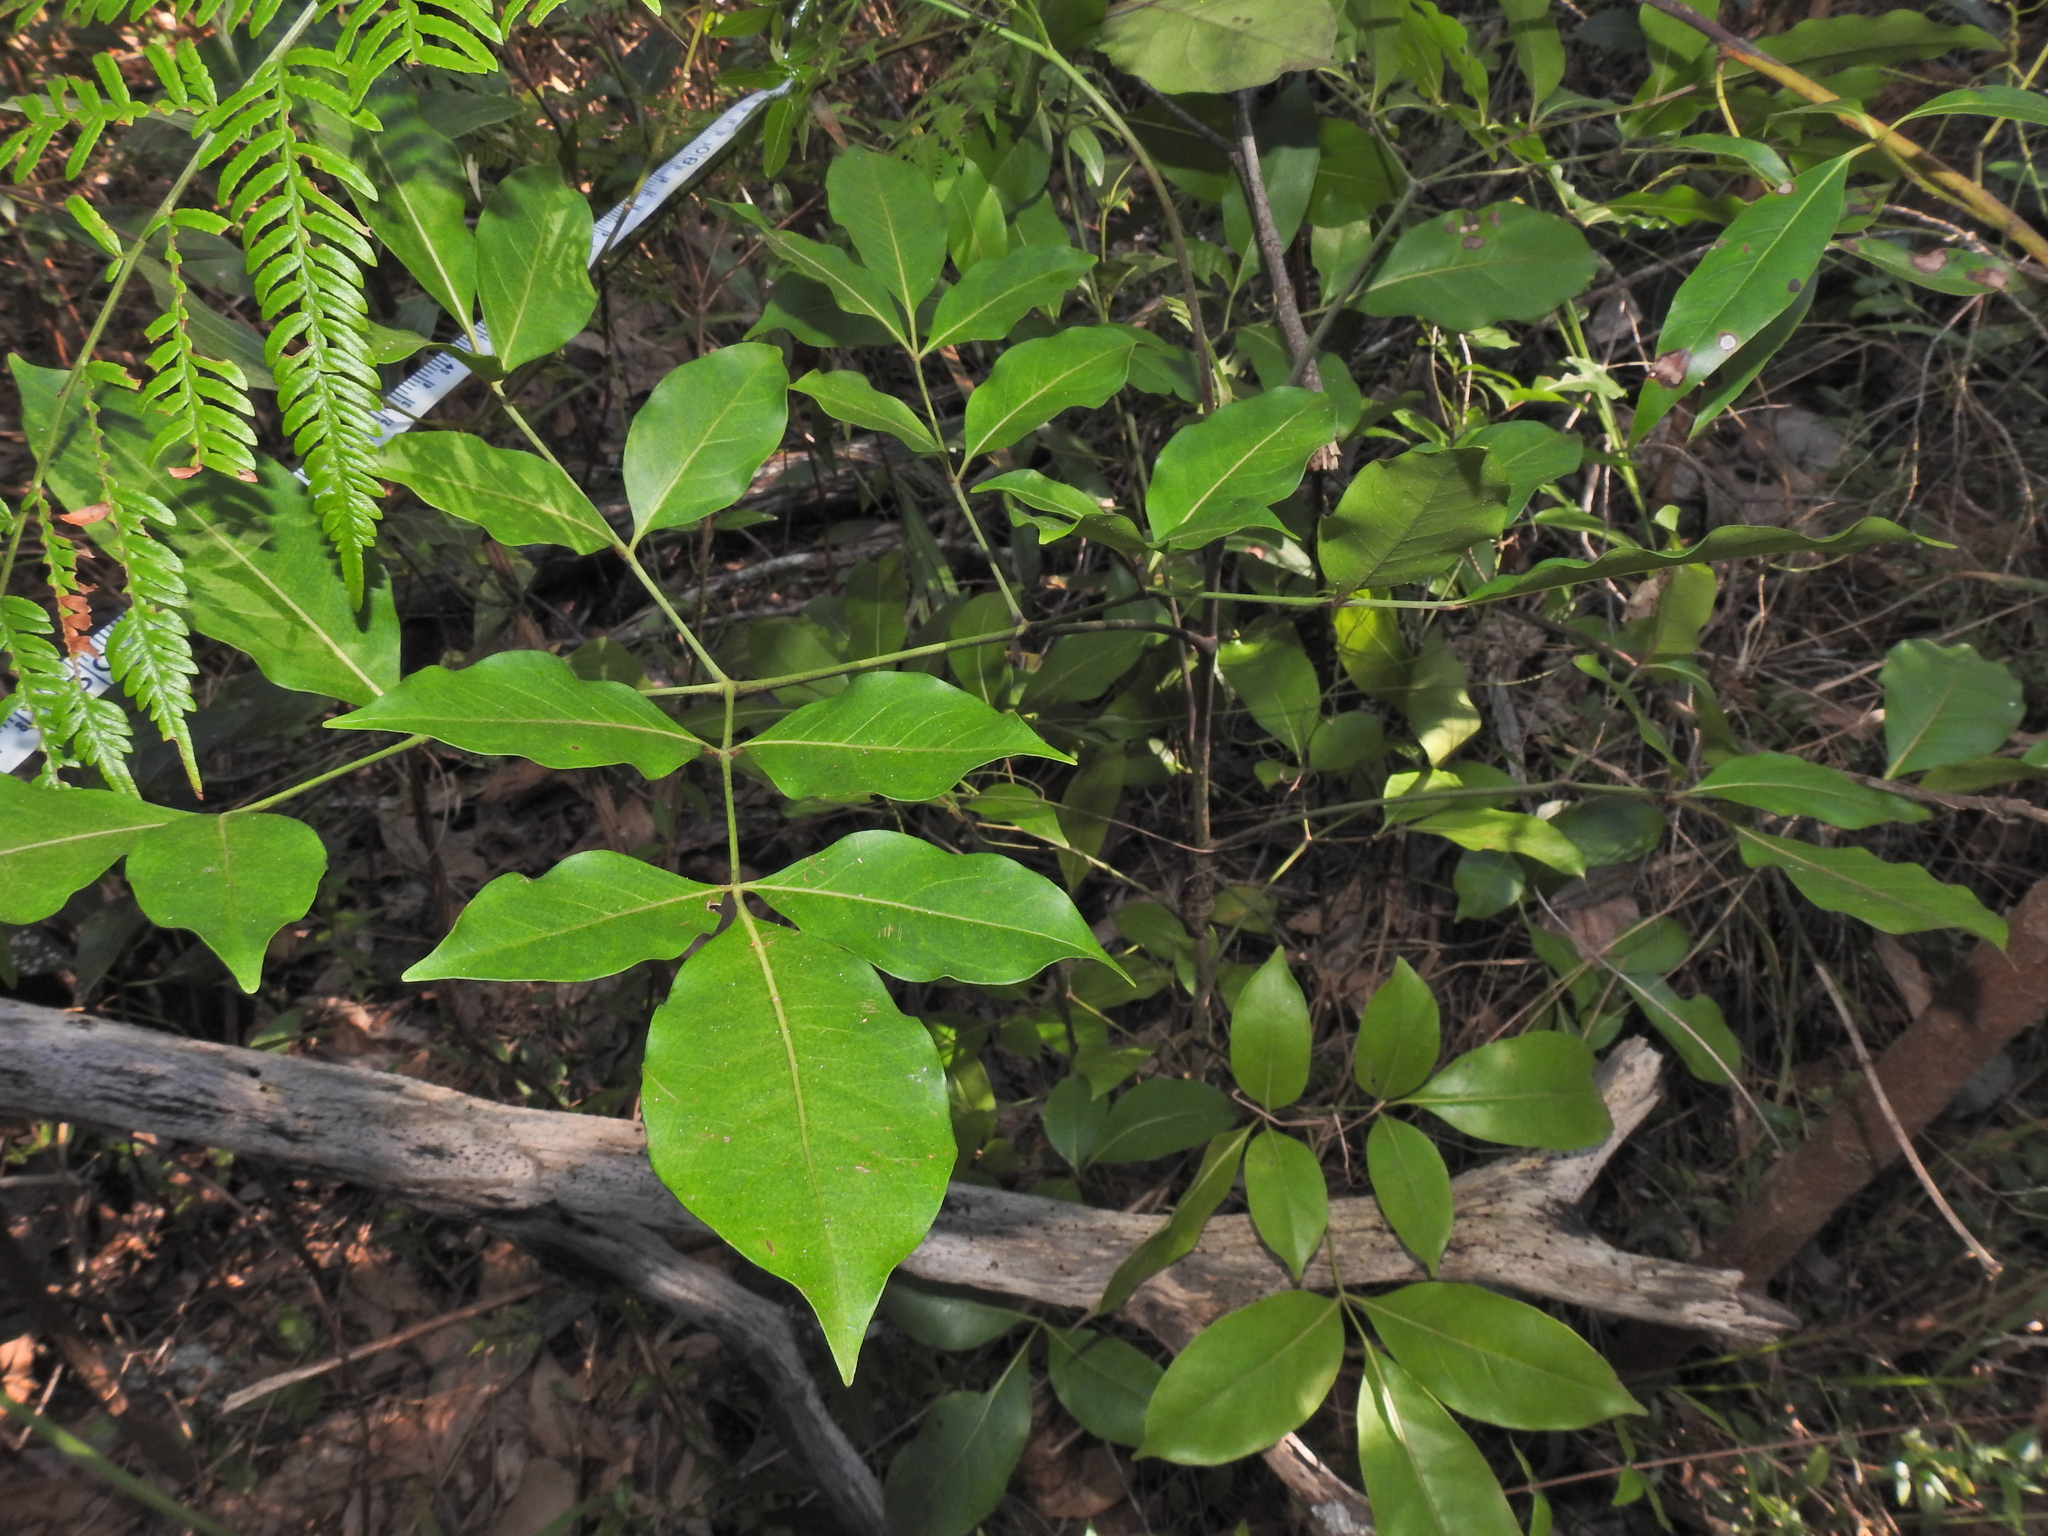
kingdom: Plantae
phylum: Tracheophyta
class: Magnoliopsida
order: Apiales
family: Araliaceae
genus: Polyscias
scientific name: Polyscias elegans
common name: Mowbulan whitewood
